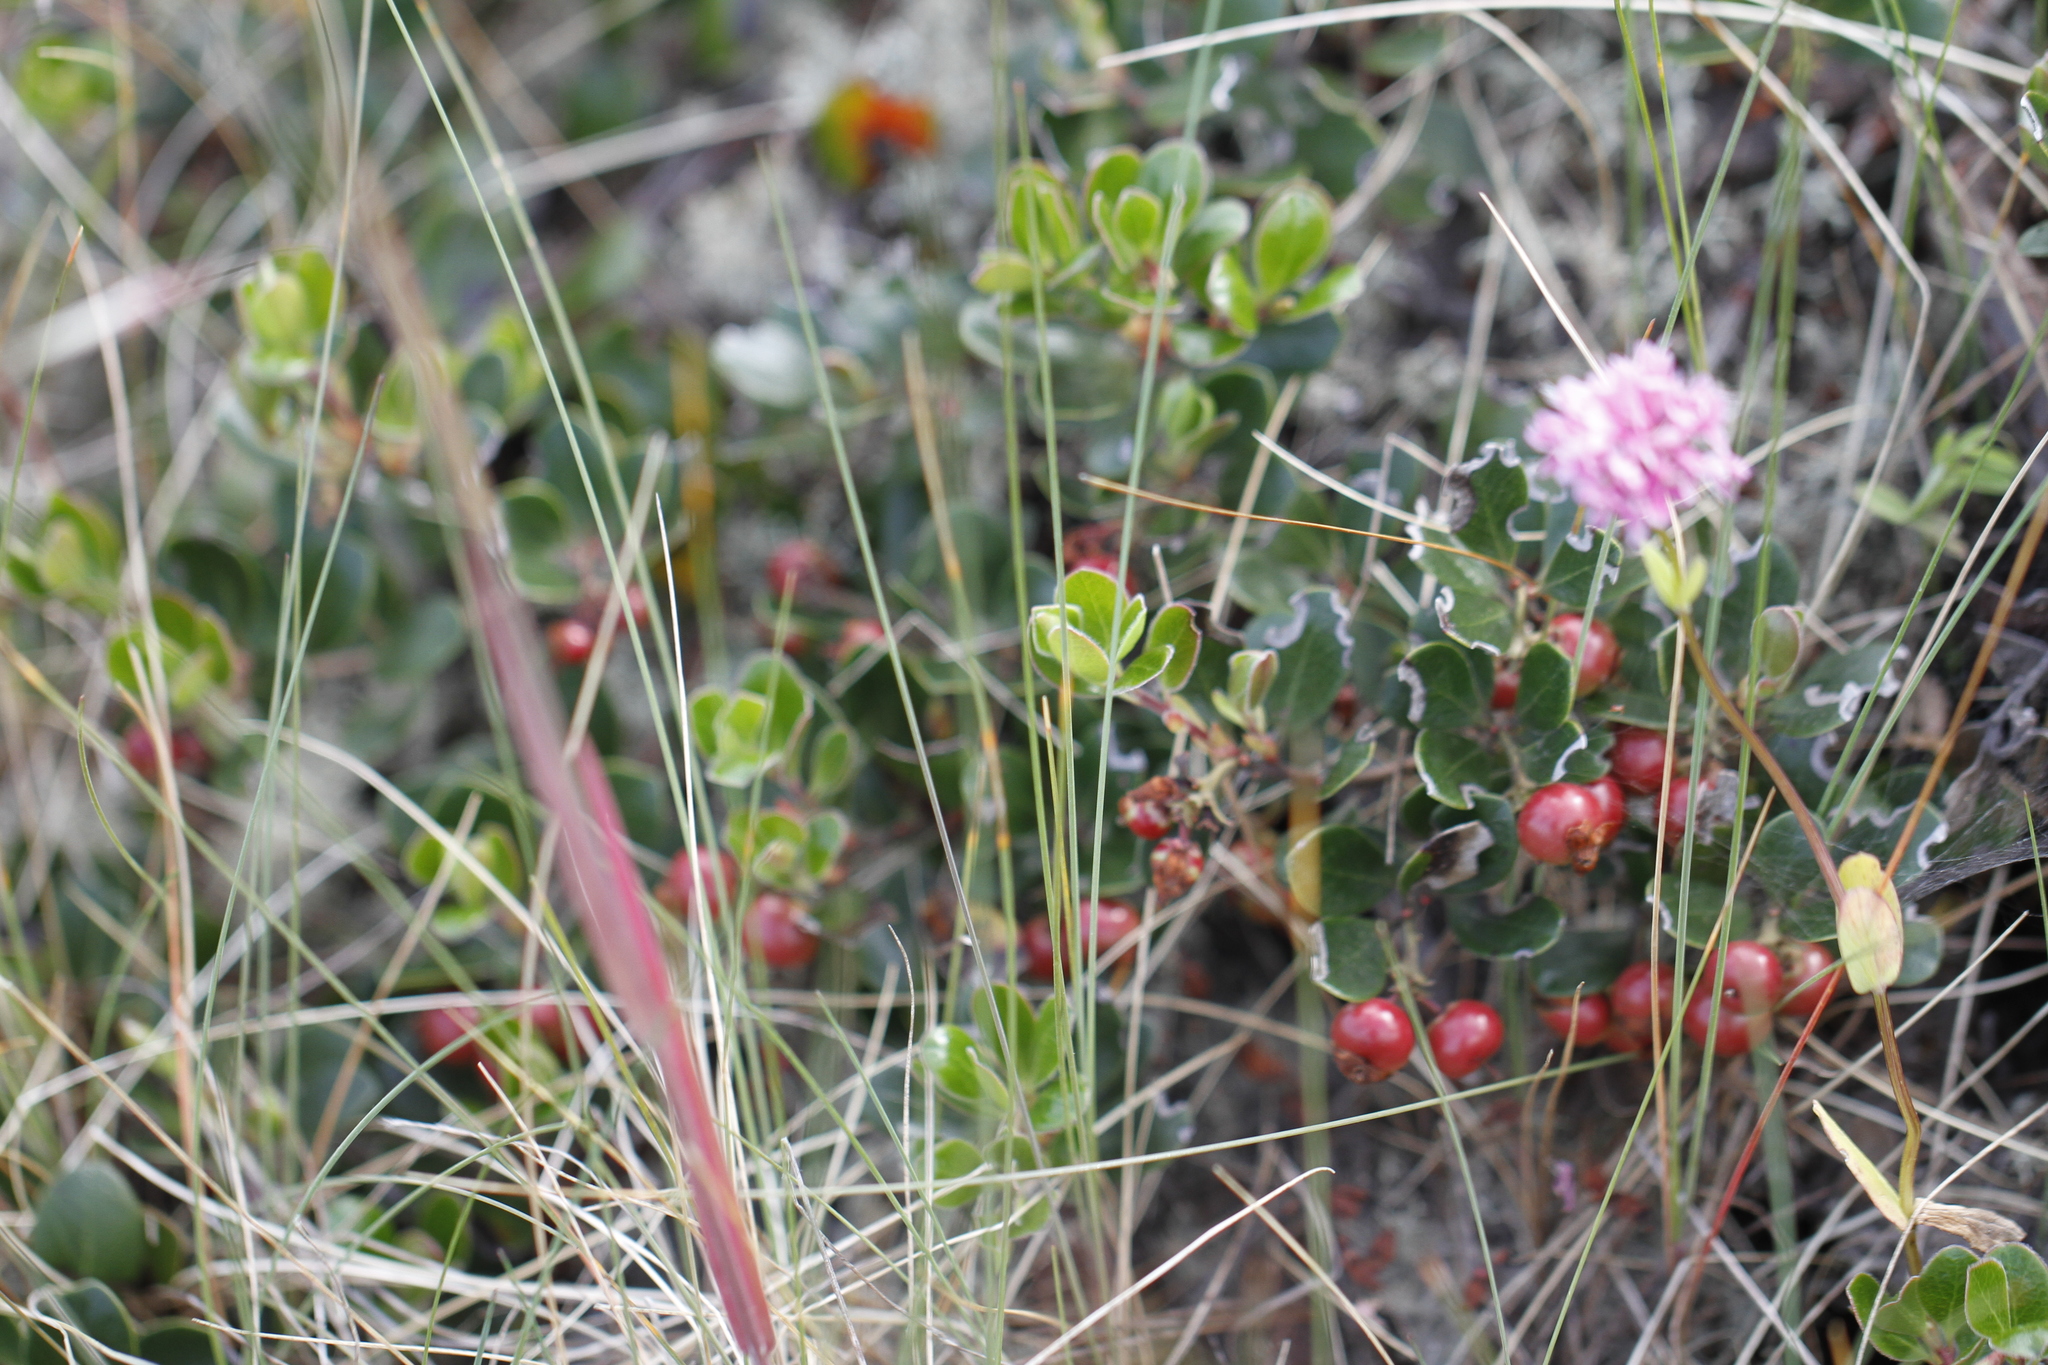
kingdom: Plantae
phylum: Tracheophyta
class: Magnoliopsida
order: Ericales
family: Ericaceae
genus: Arctostaphylos
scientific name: Arctostaphylos uva-ursi
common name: Bearberry
